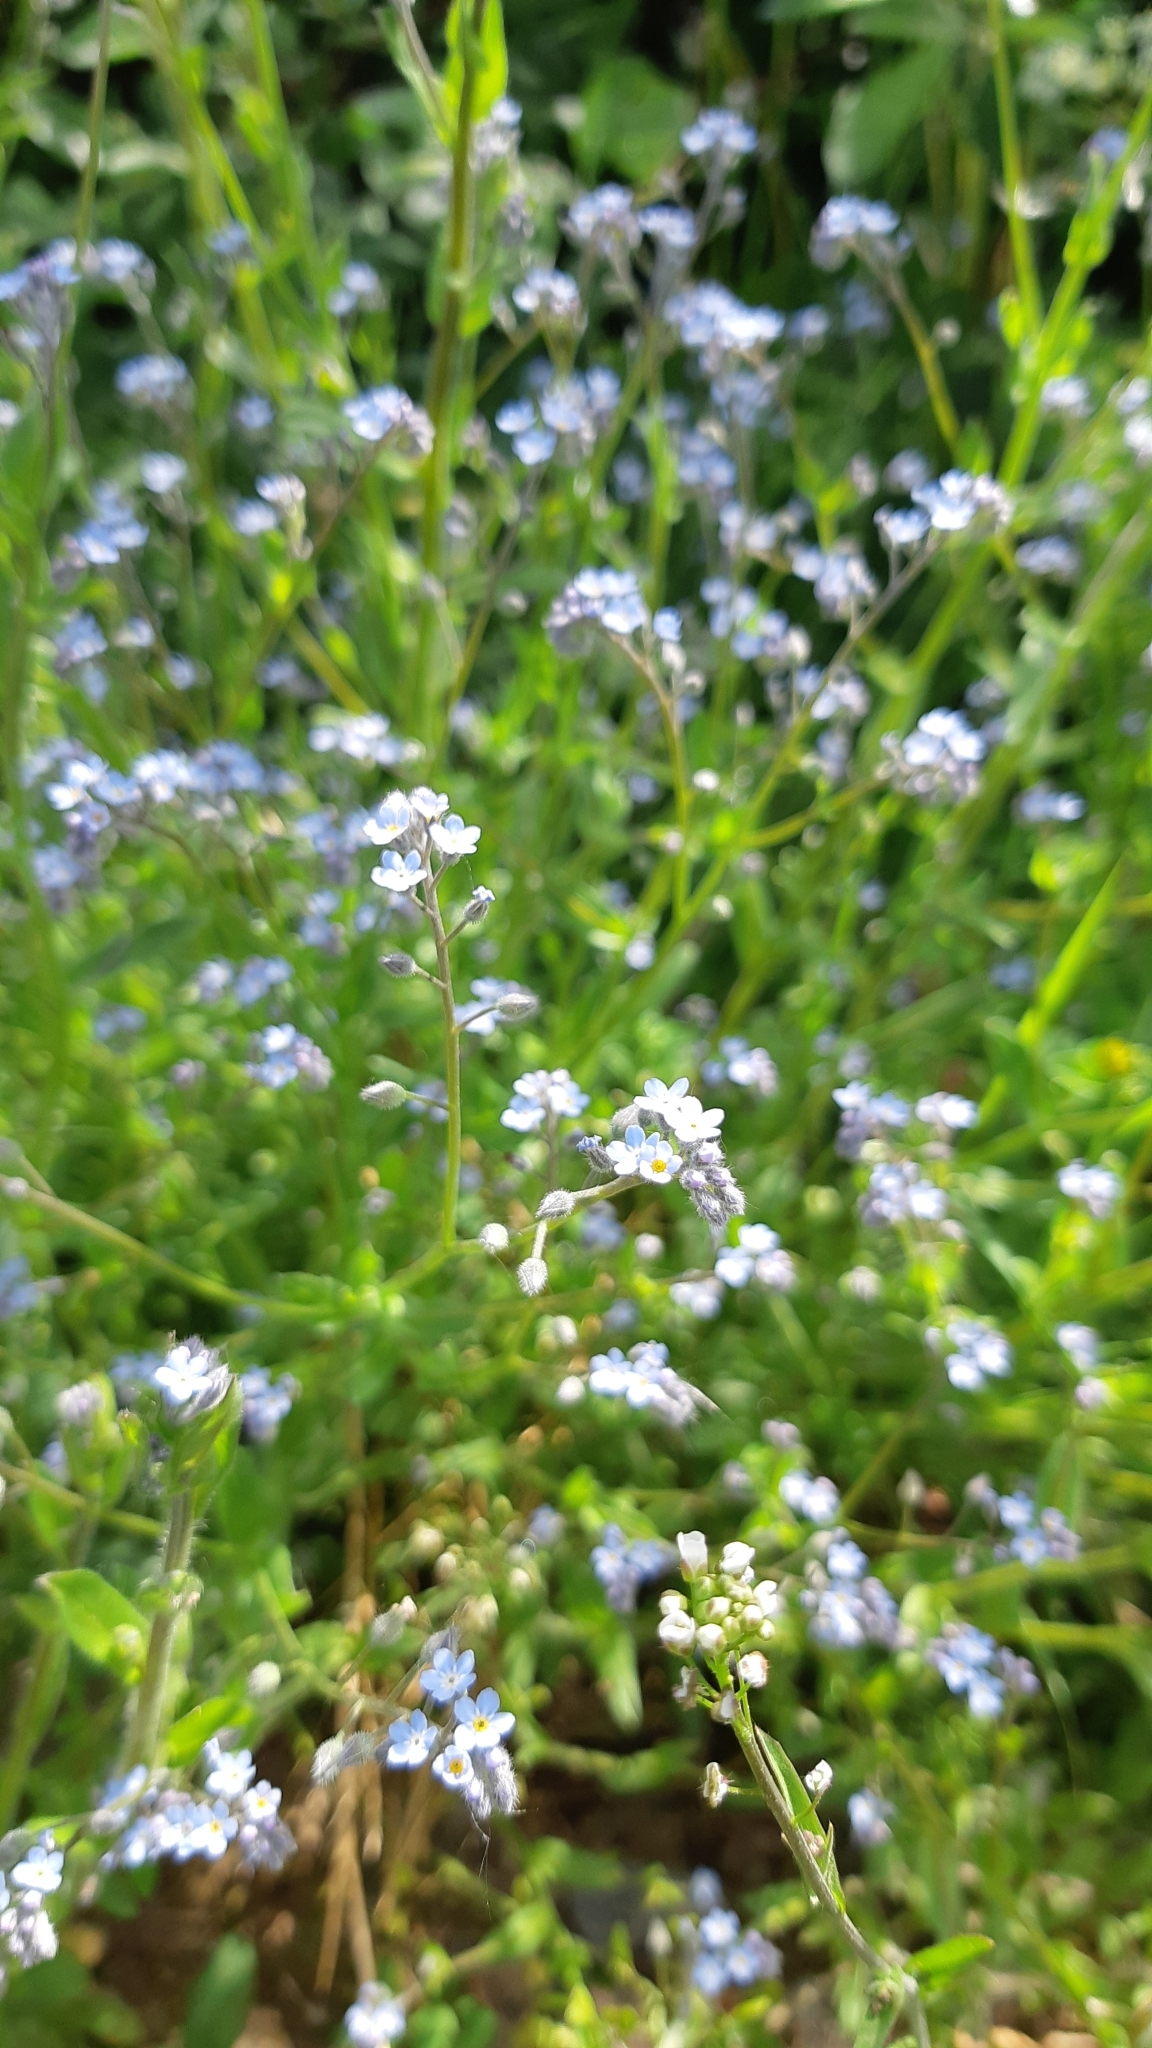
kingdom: Plantae
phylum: Tracheophyta
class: Magnoliopsida
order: Boraginales
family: Boraginaceae
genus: Myosotis
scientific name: Myosotis arvensis
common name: Field forget-me-not
